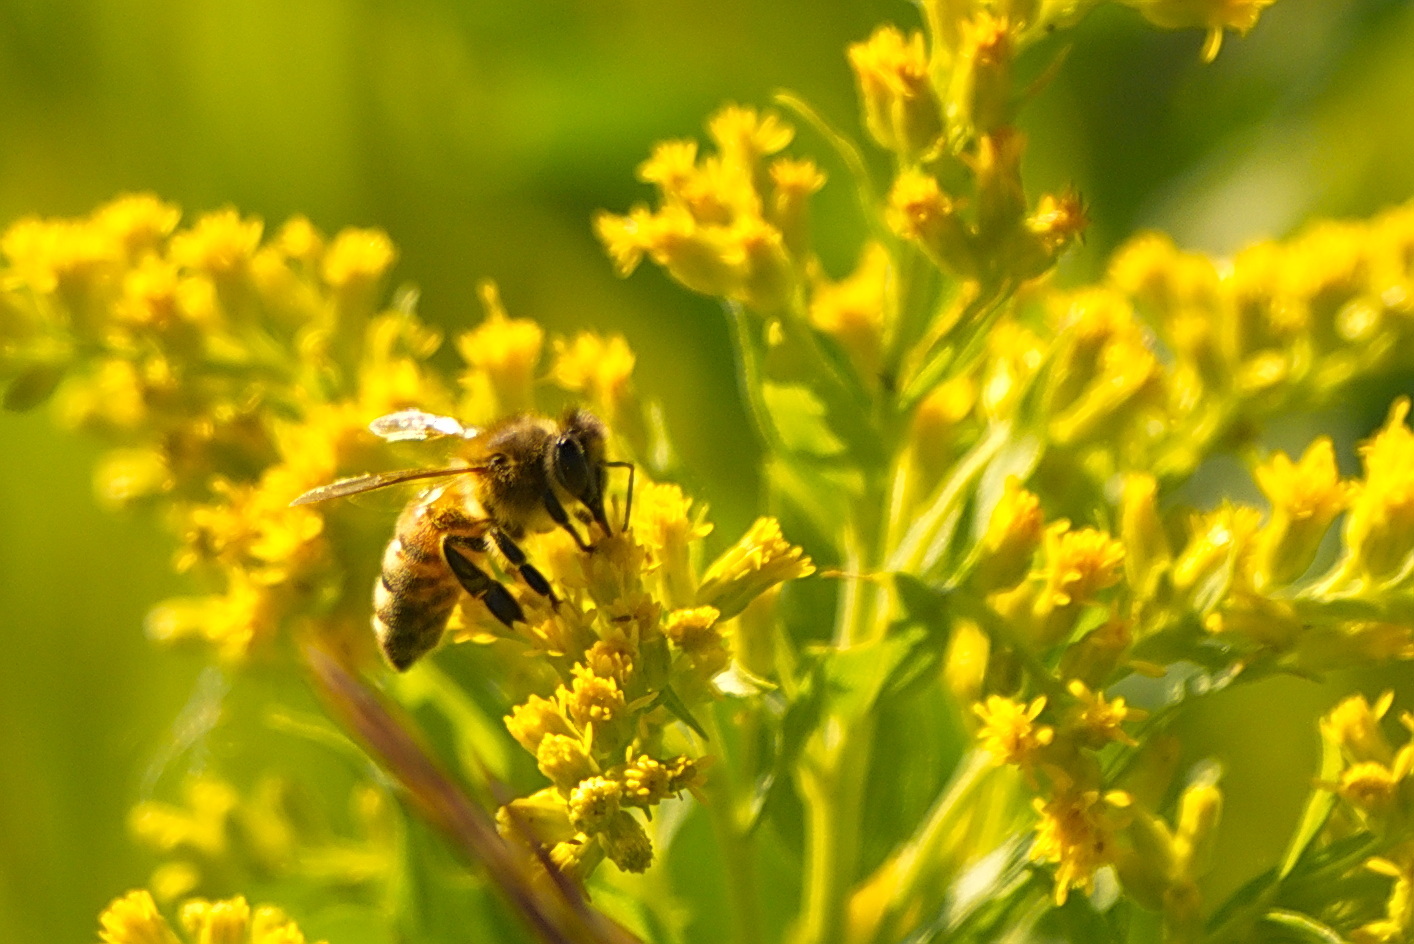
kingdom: Animalia
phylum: Arthropoda
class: Insecta
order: Hymenoptera
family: Apidae
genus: Apis
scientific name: Apis mellifera
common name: Honey bee
